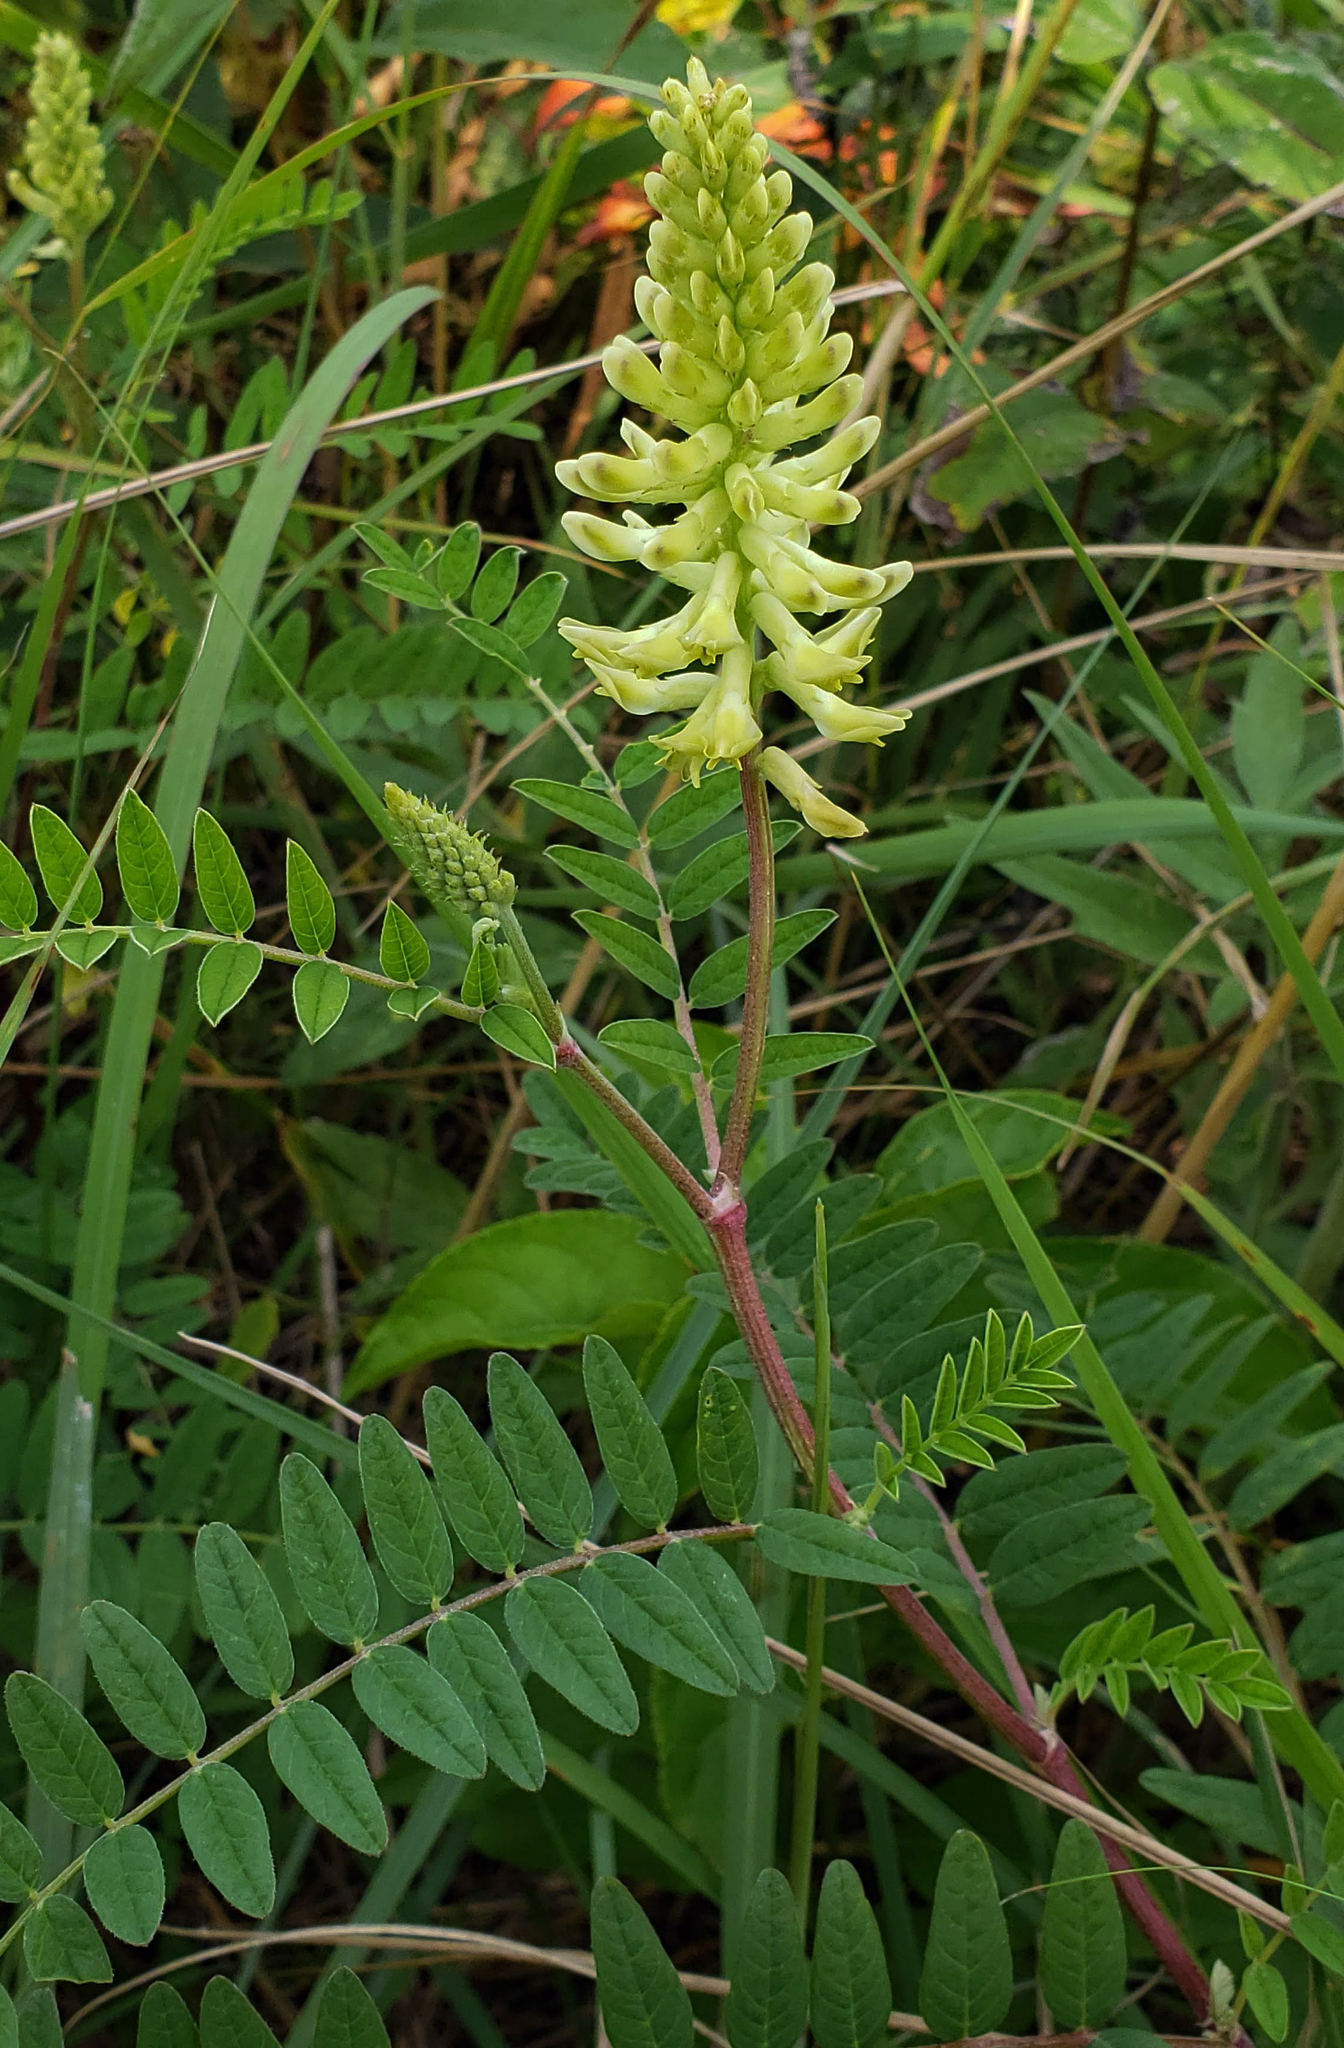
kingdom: Plantae
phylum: Tracheophyta
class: Magnoliopsida
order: Fabales
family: Fabaceae
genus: Astragalus
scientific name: Astragalus canadensis
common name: Canada milk-vetch
